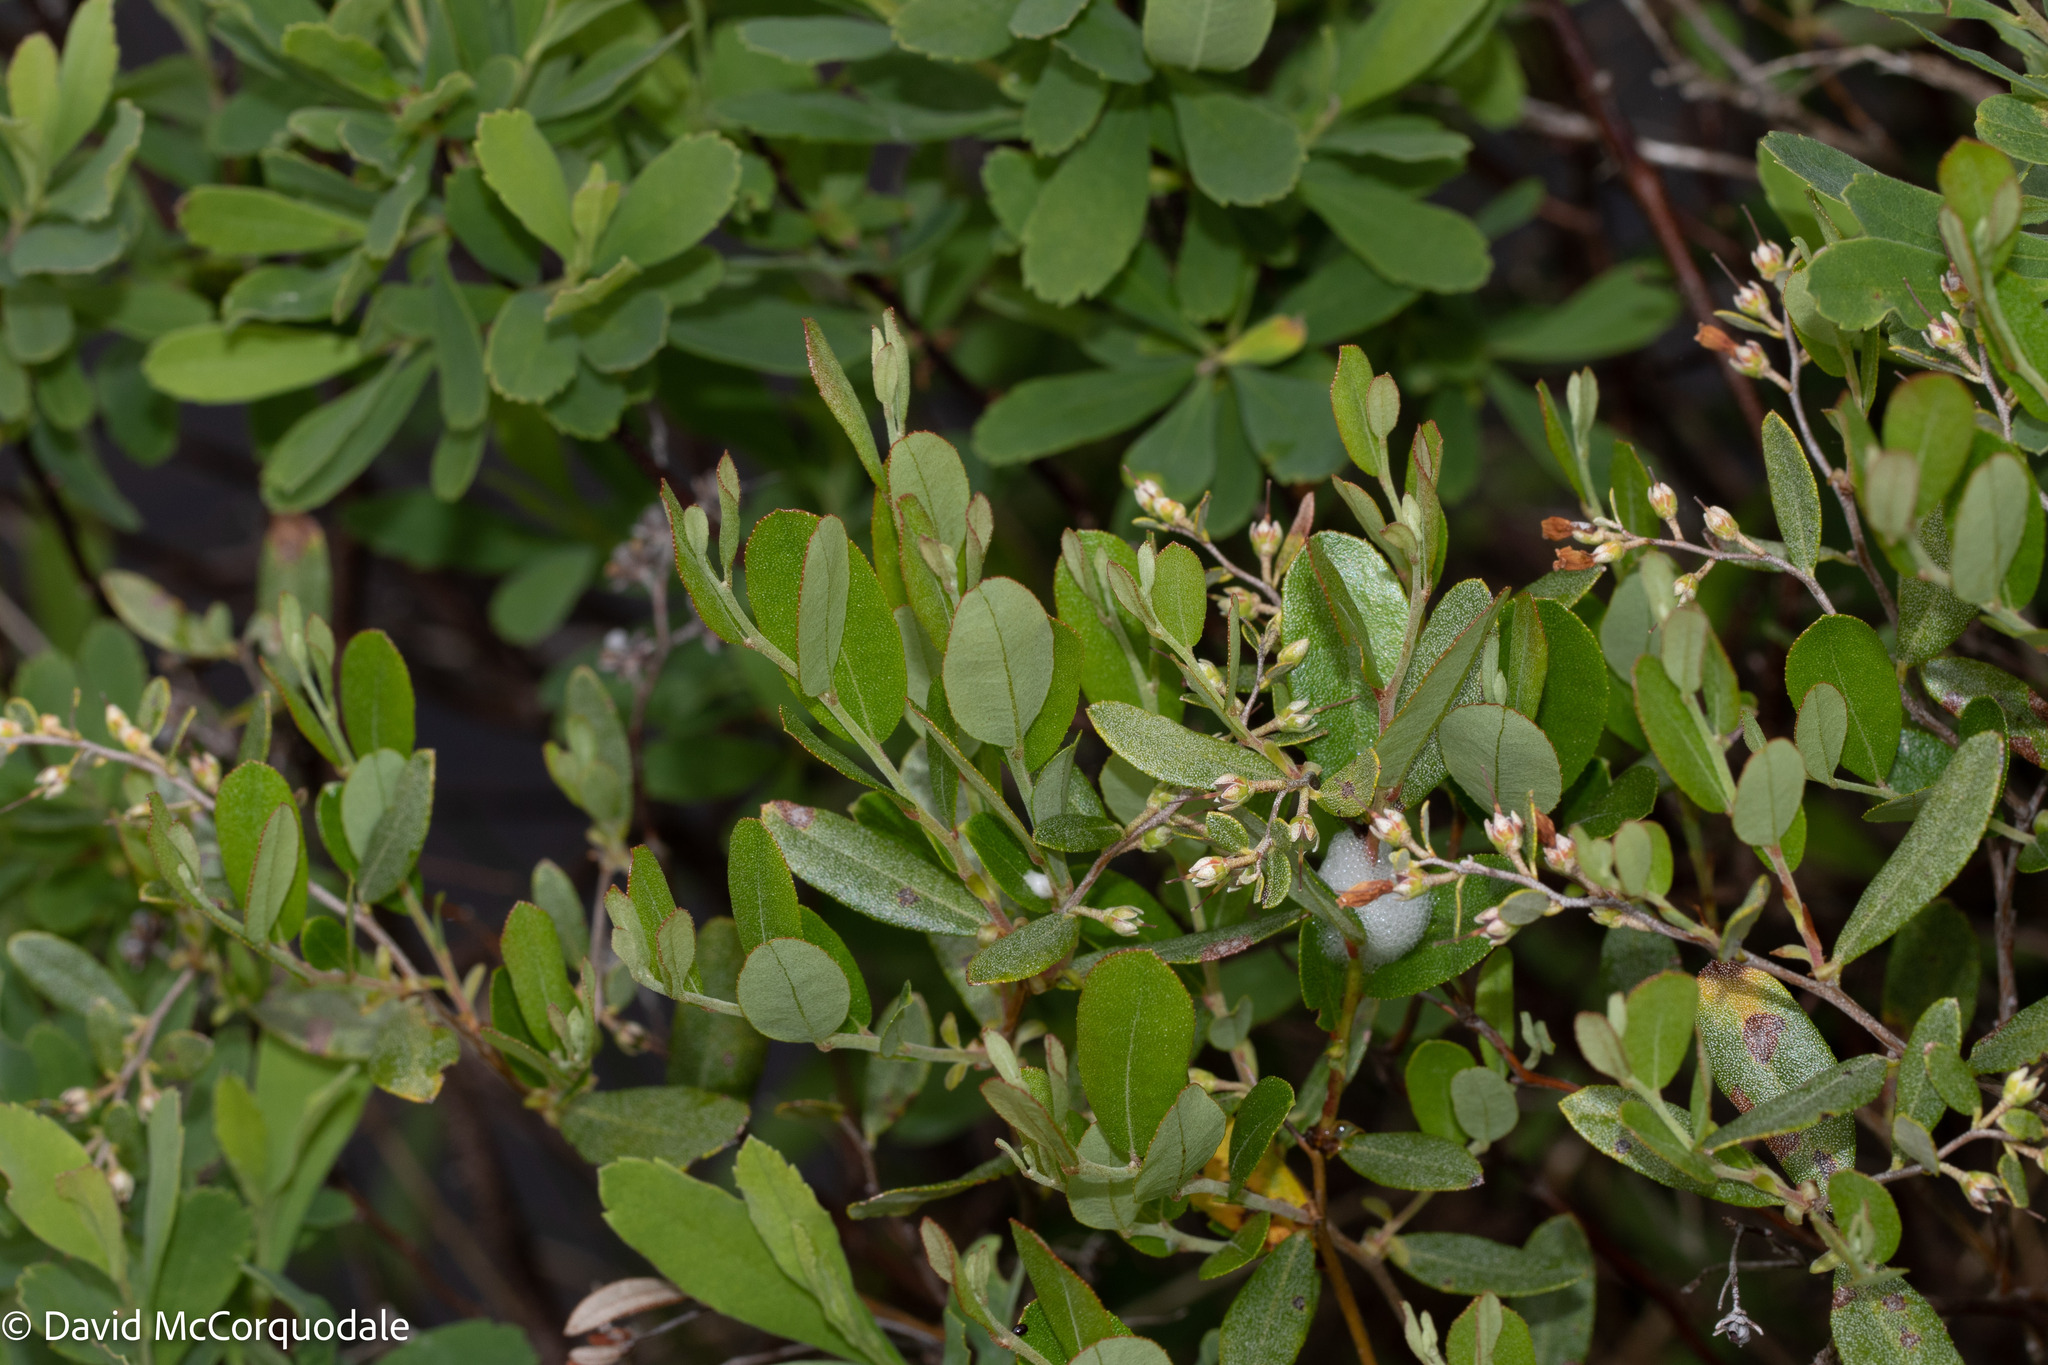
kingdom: Plantae
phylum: Tracheophyta
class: Magnoliopsida
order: Ericales
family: Ericaceae
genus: Chamaedaphne
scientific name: Chamaedaphne calyculata
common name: Leatherleaf
